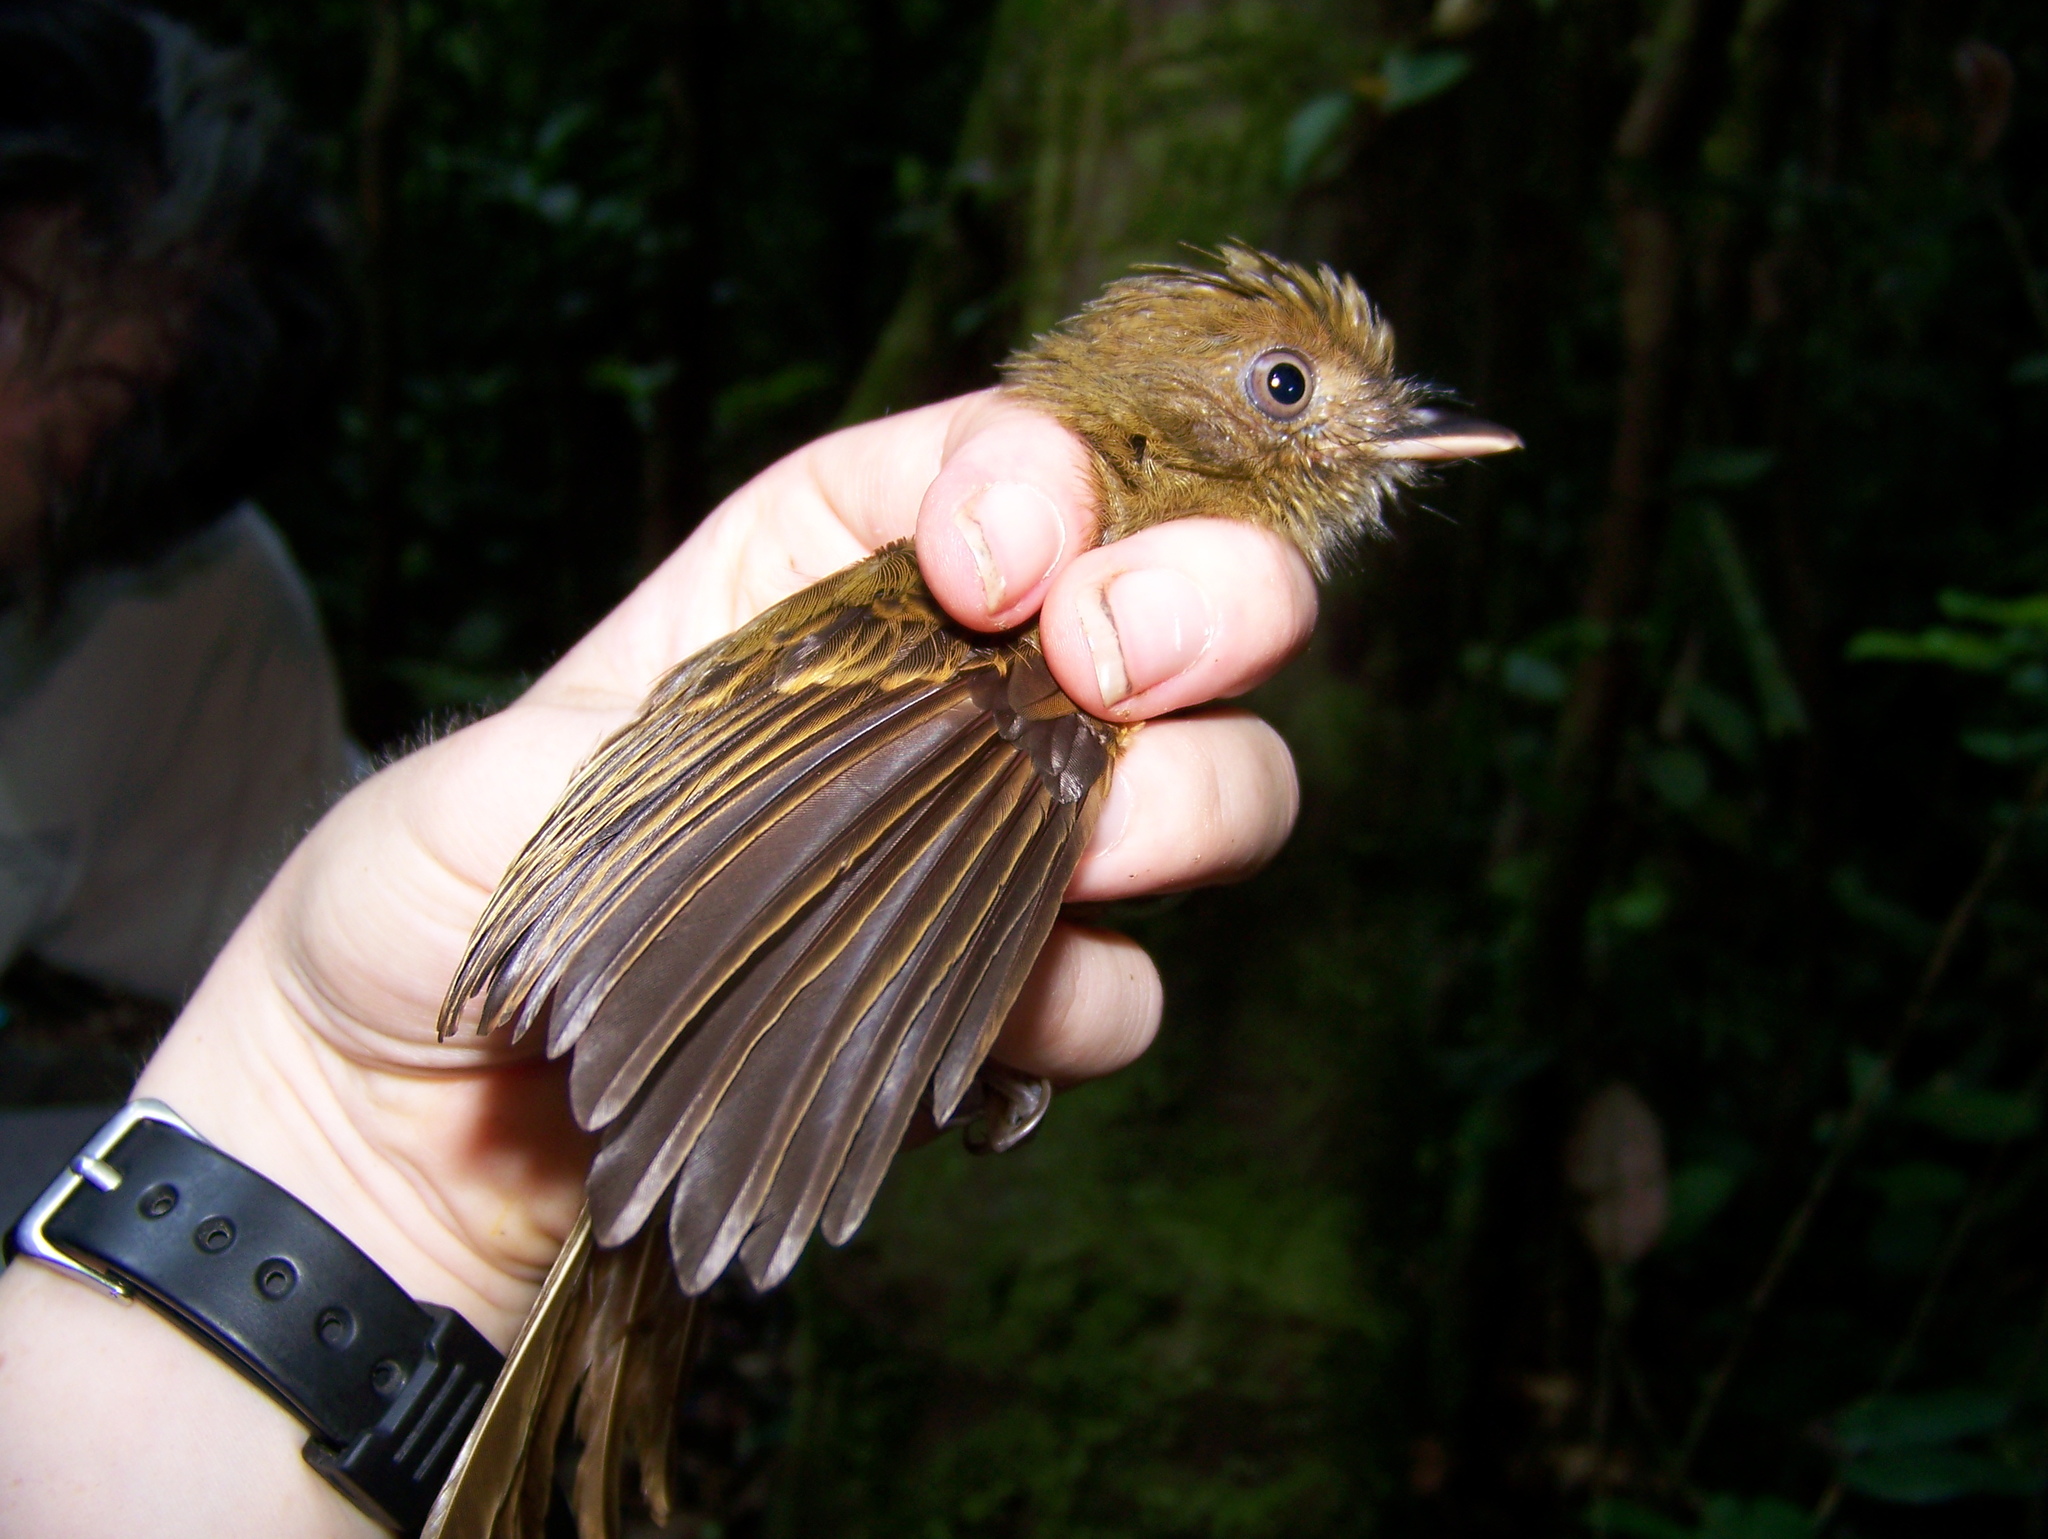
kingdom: Animalia
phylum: Chordata
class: Aves
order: Passeriformes
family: Tyrannidae
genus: Cnipodectes
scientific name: Cnipodectes subbrunneus
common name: Brownish twistwing
